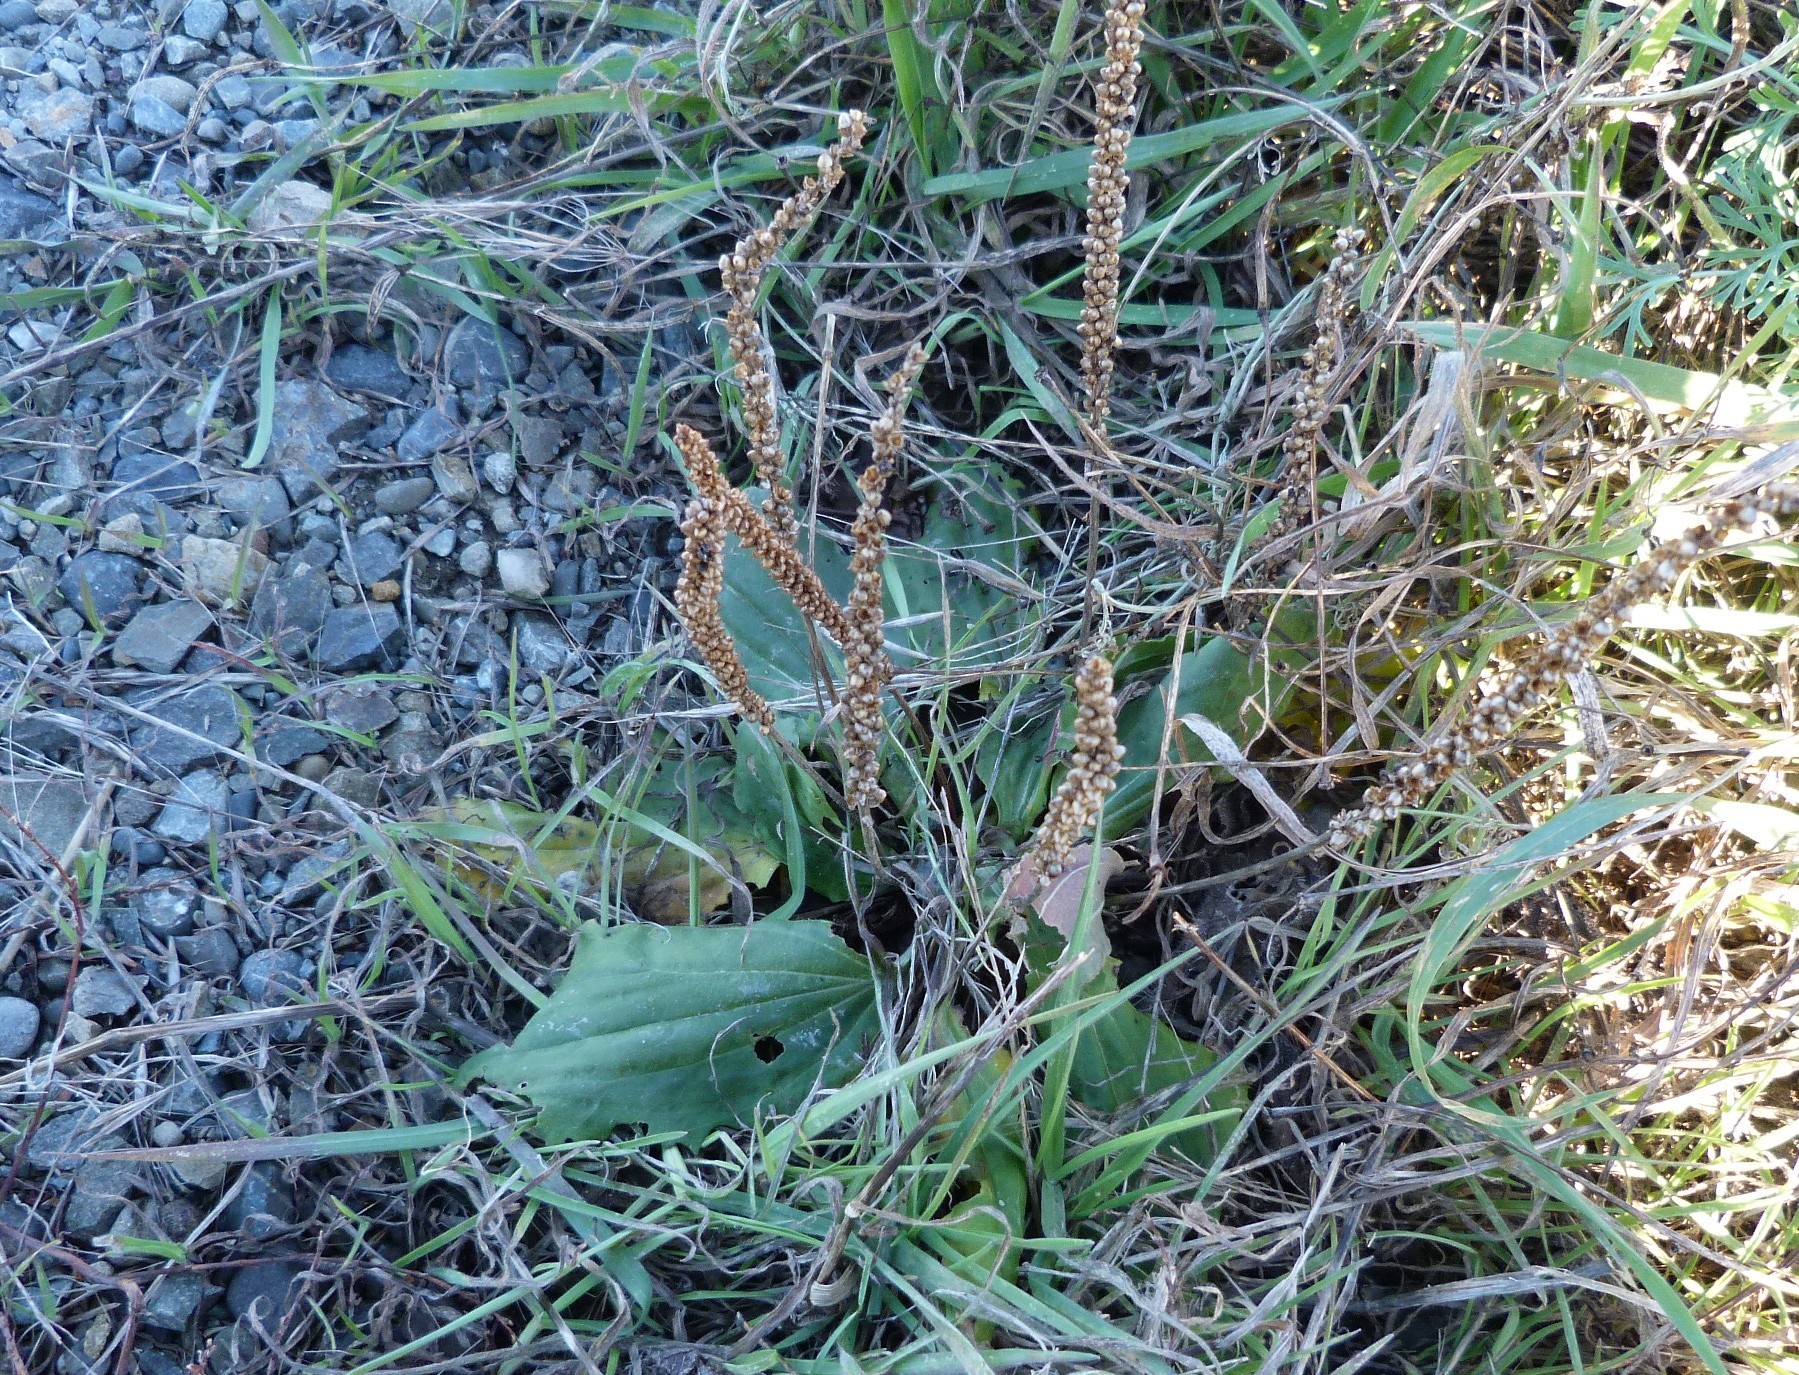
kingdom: Plantae
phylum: Tracheophyta
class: Magnoliopsida
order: Lamiales
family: Plantaginaceae
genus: Plantago
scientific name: Plantago major
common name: Common plantain
